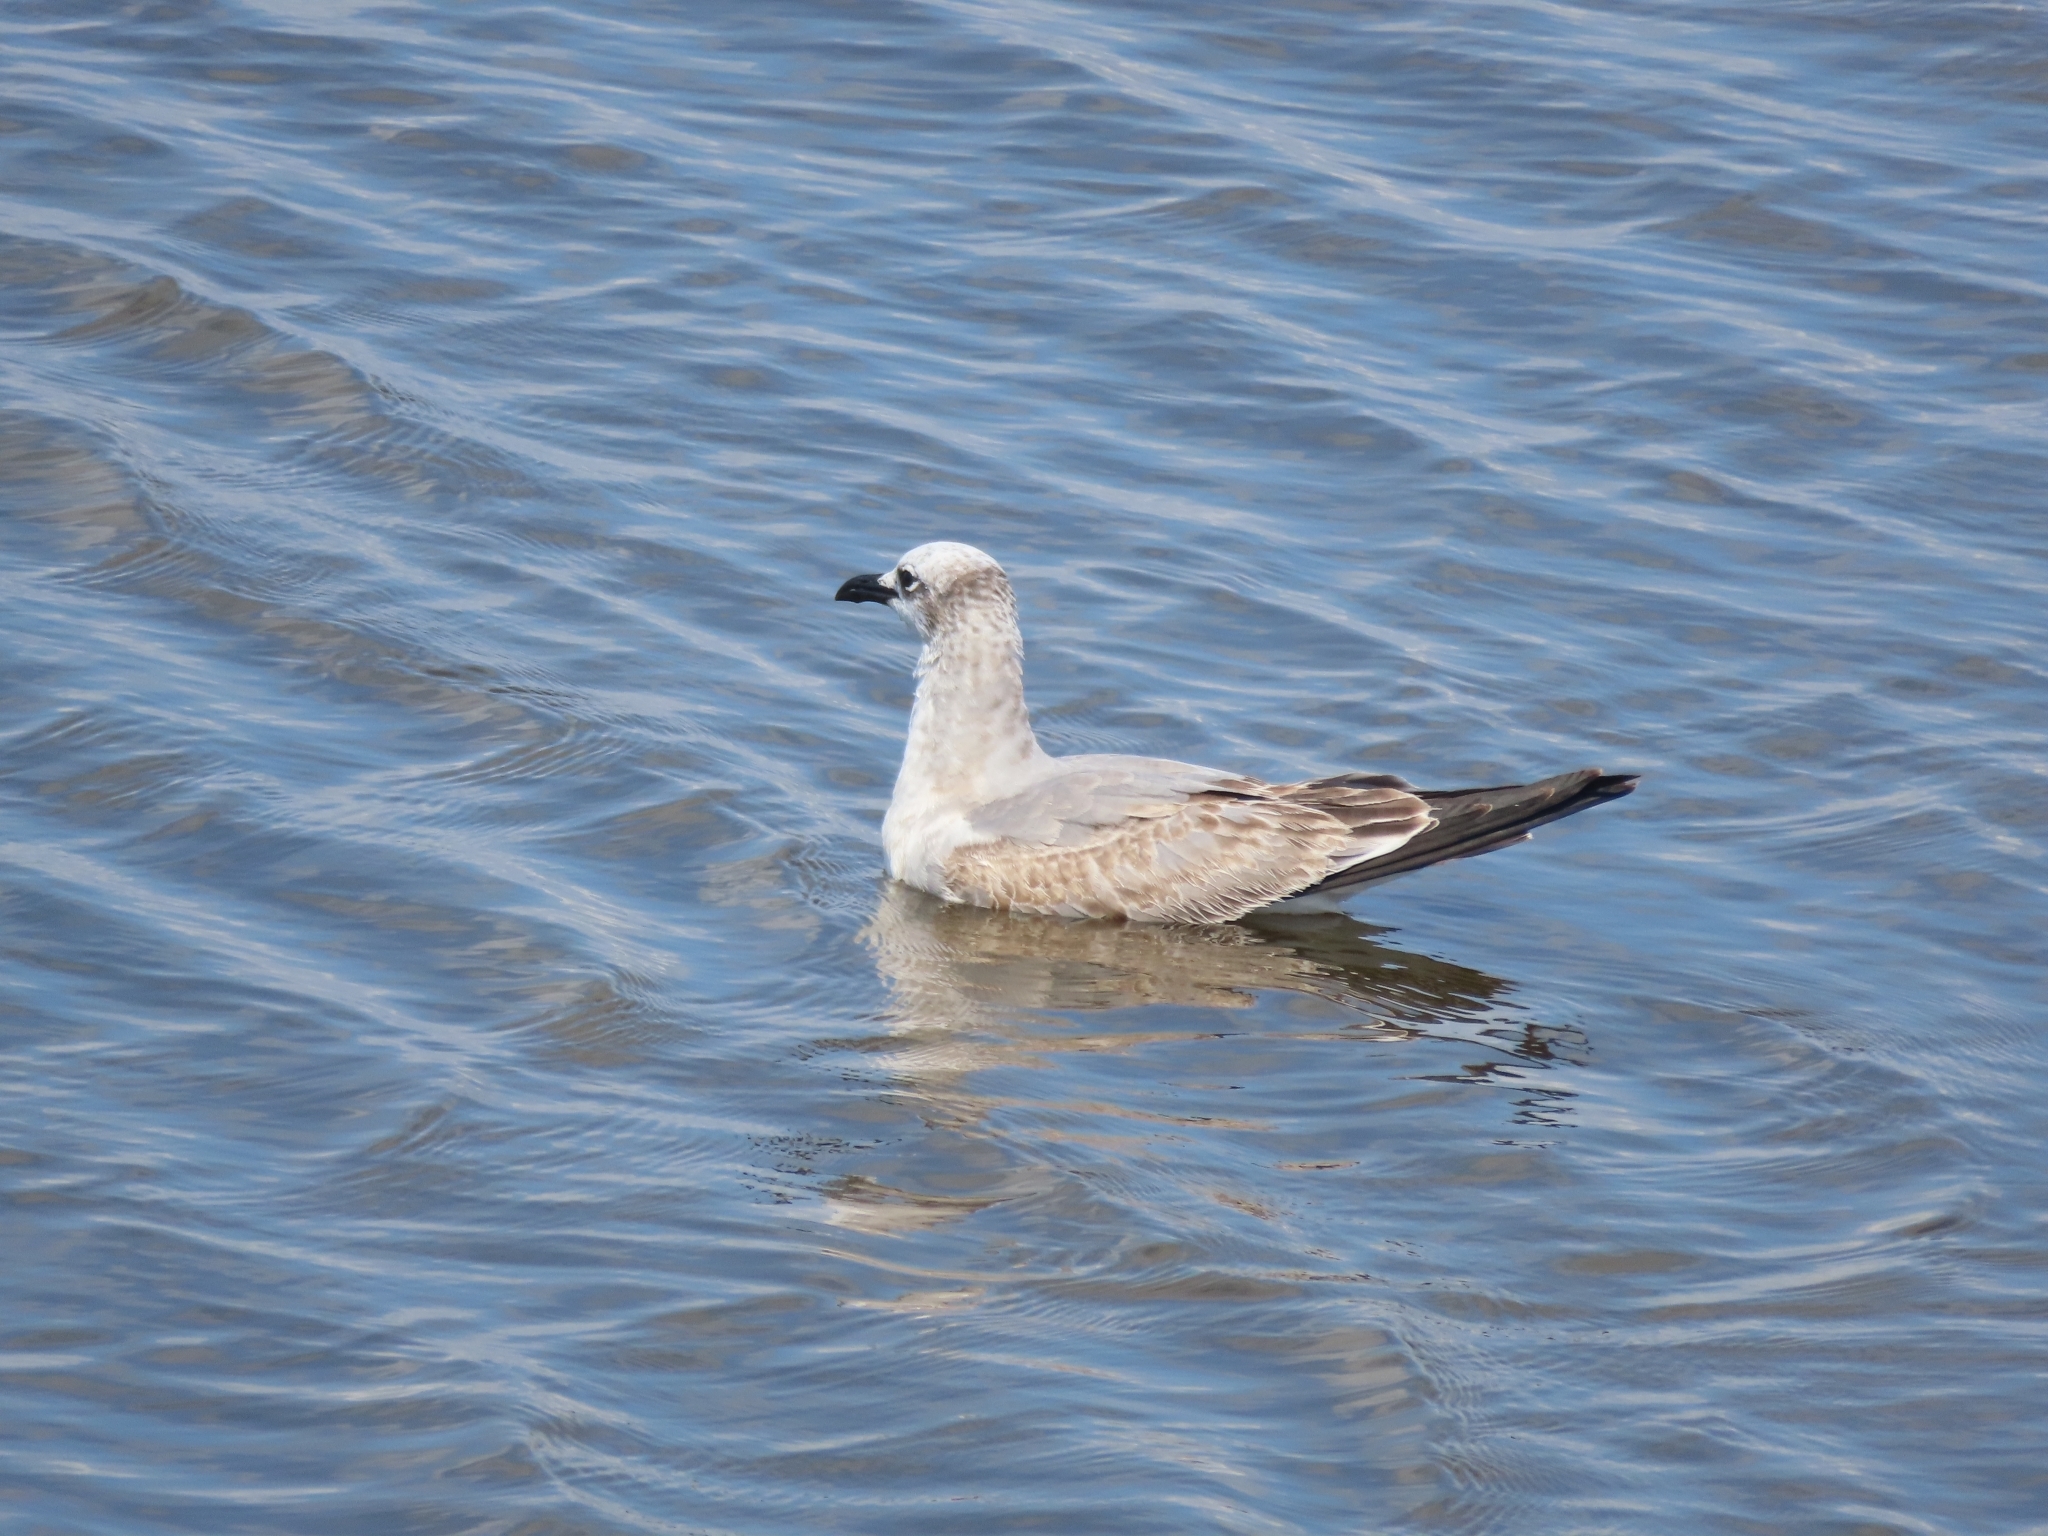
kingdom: Animalia
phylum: Chordata
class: Aves
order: Charadriiformes
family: Laridae
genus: Leucophaeus
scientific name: Leucophaeus atricilla
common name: Laughing gull
